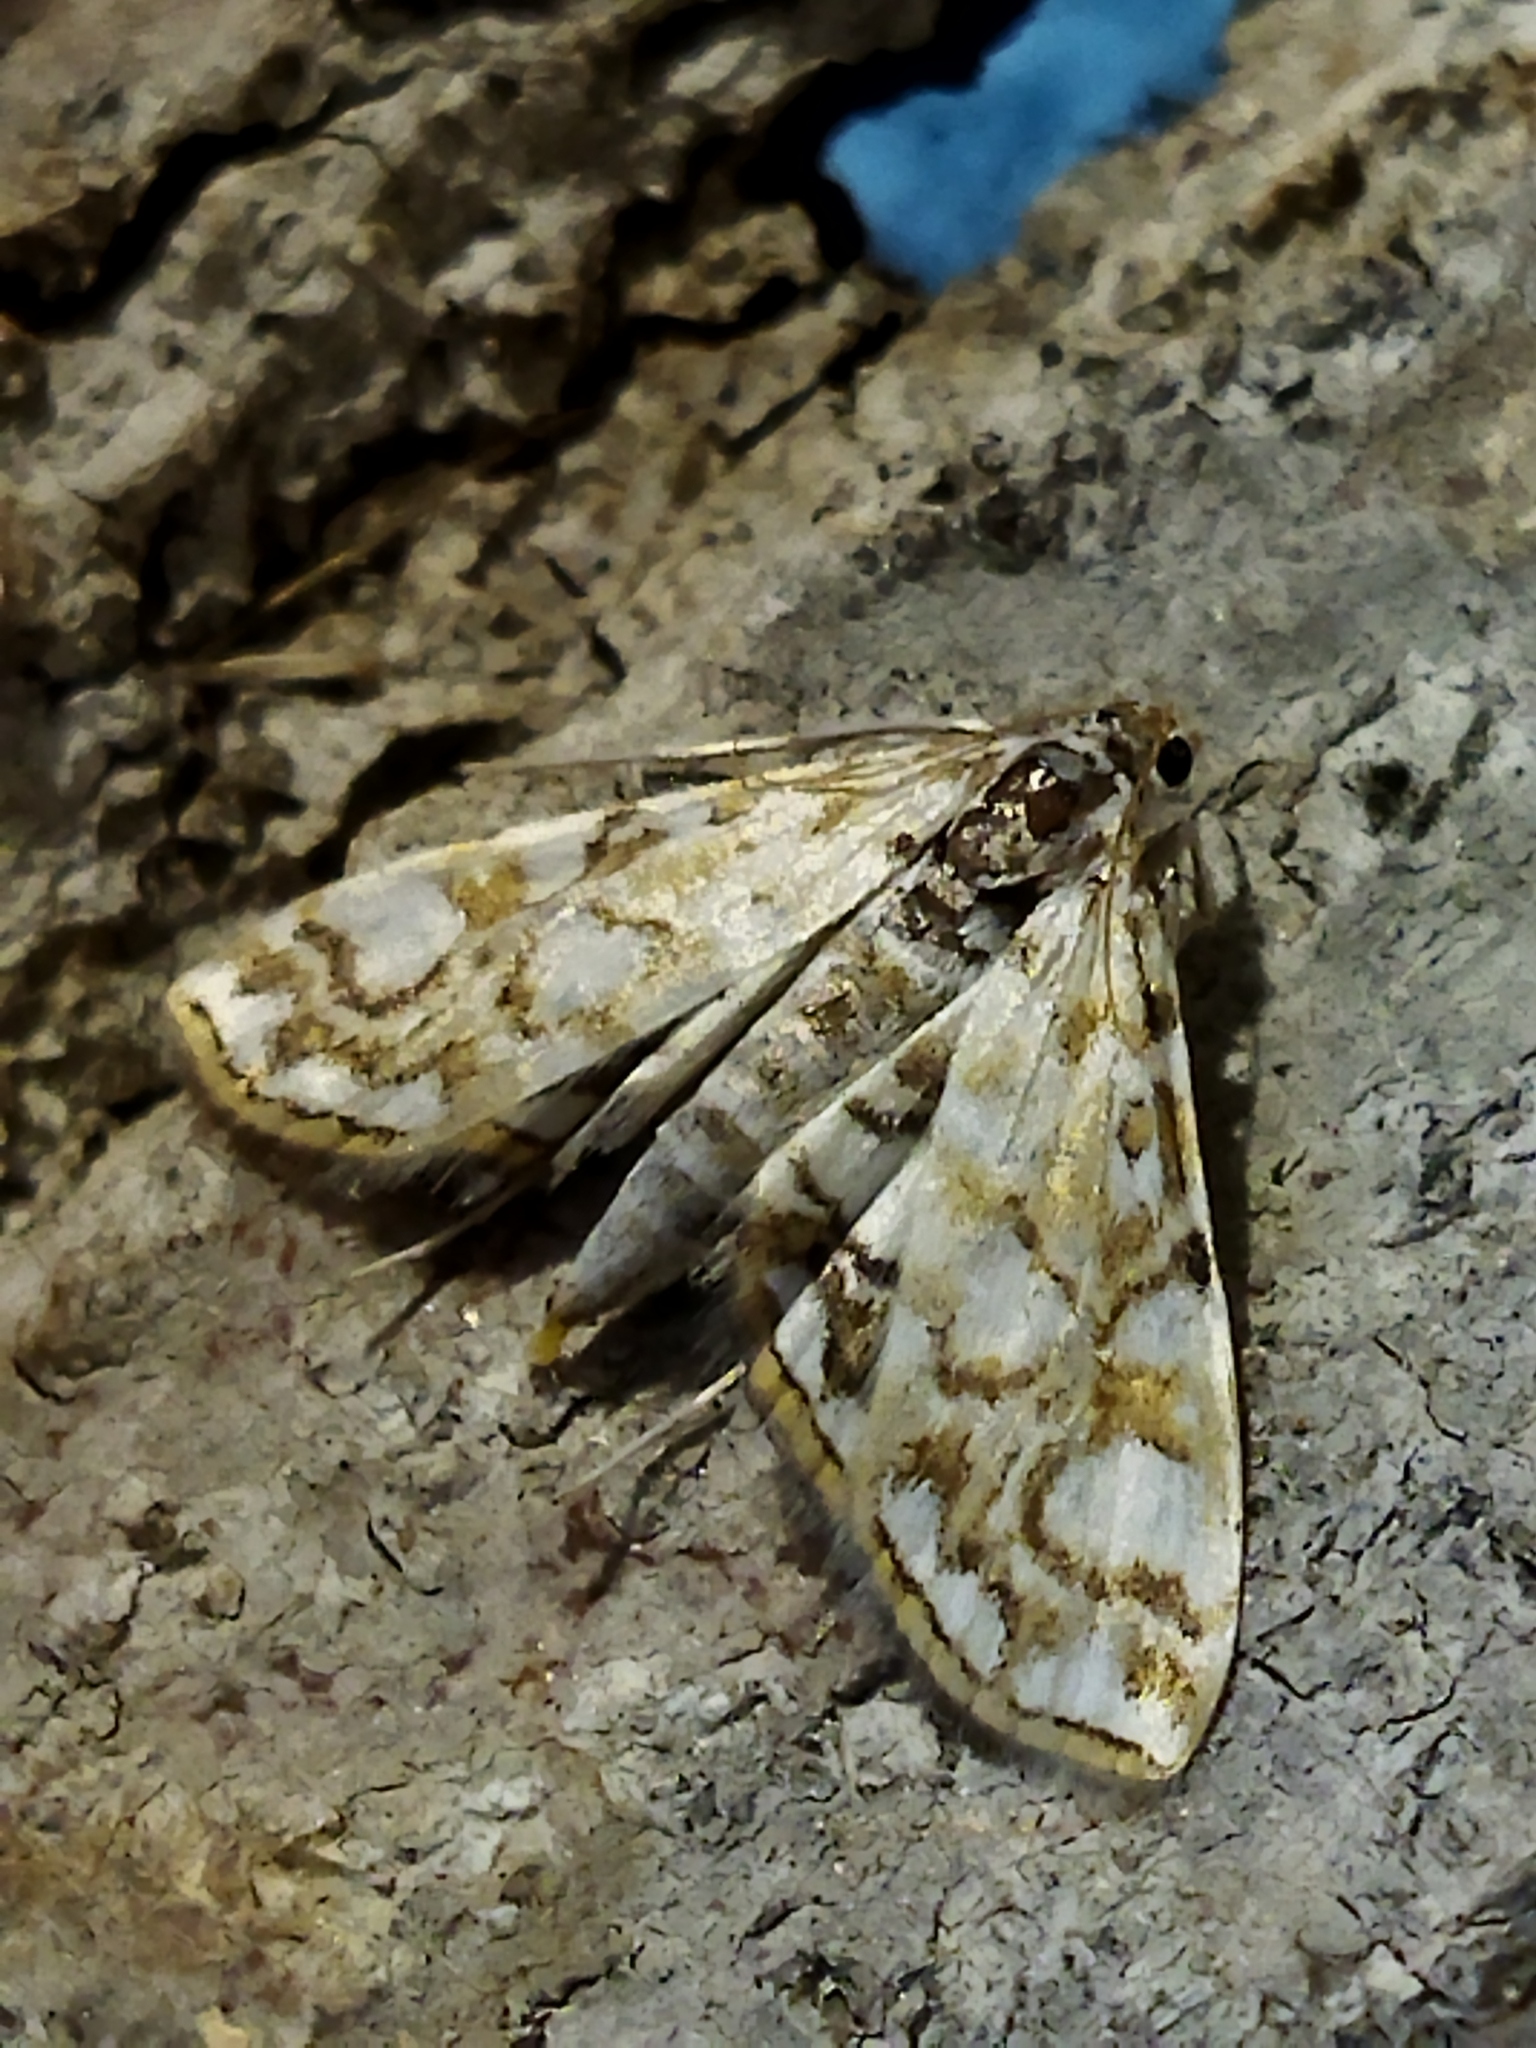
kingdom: Animalia
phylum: Arthropoda
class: Insecta
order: Lepidoptera
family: Crambidae
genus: Elophila
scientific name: Elophila nymphaeata
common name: Brown china-mark
